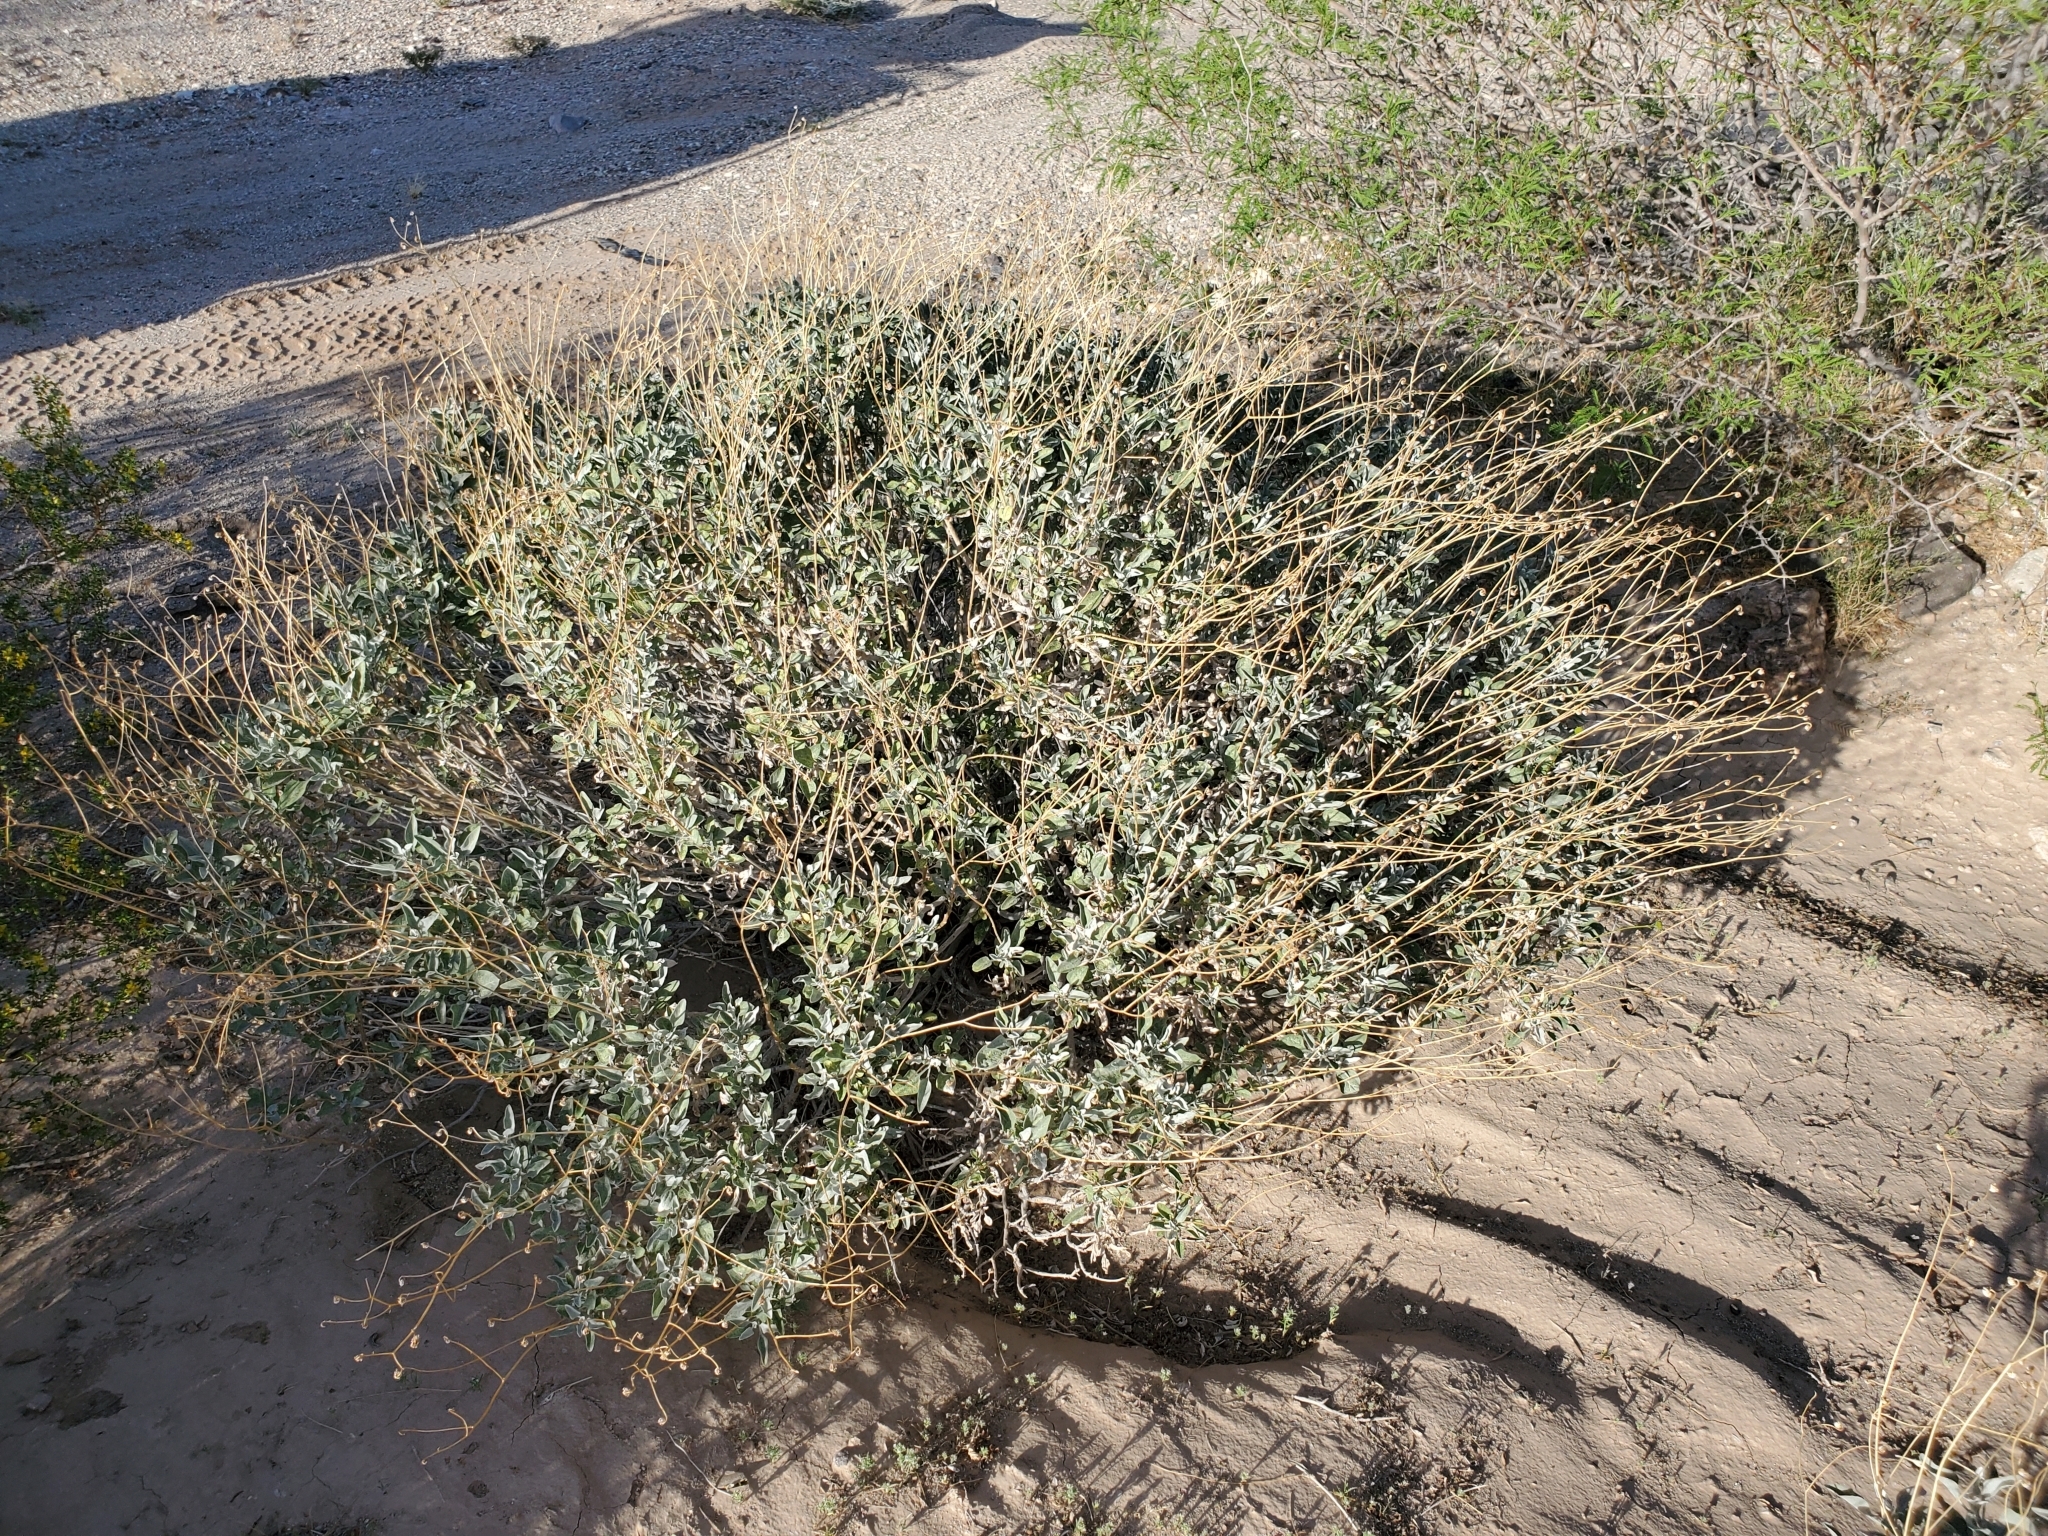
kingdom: Plantae
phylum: Tracheophyta
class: Magnoliopsida
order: Asterales
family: Asteraceae
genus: Encelia
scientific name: Encelia farinosa
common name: Brittlebush
